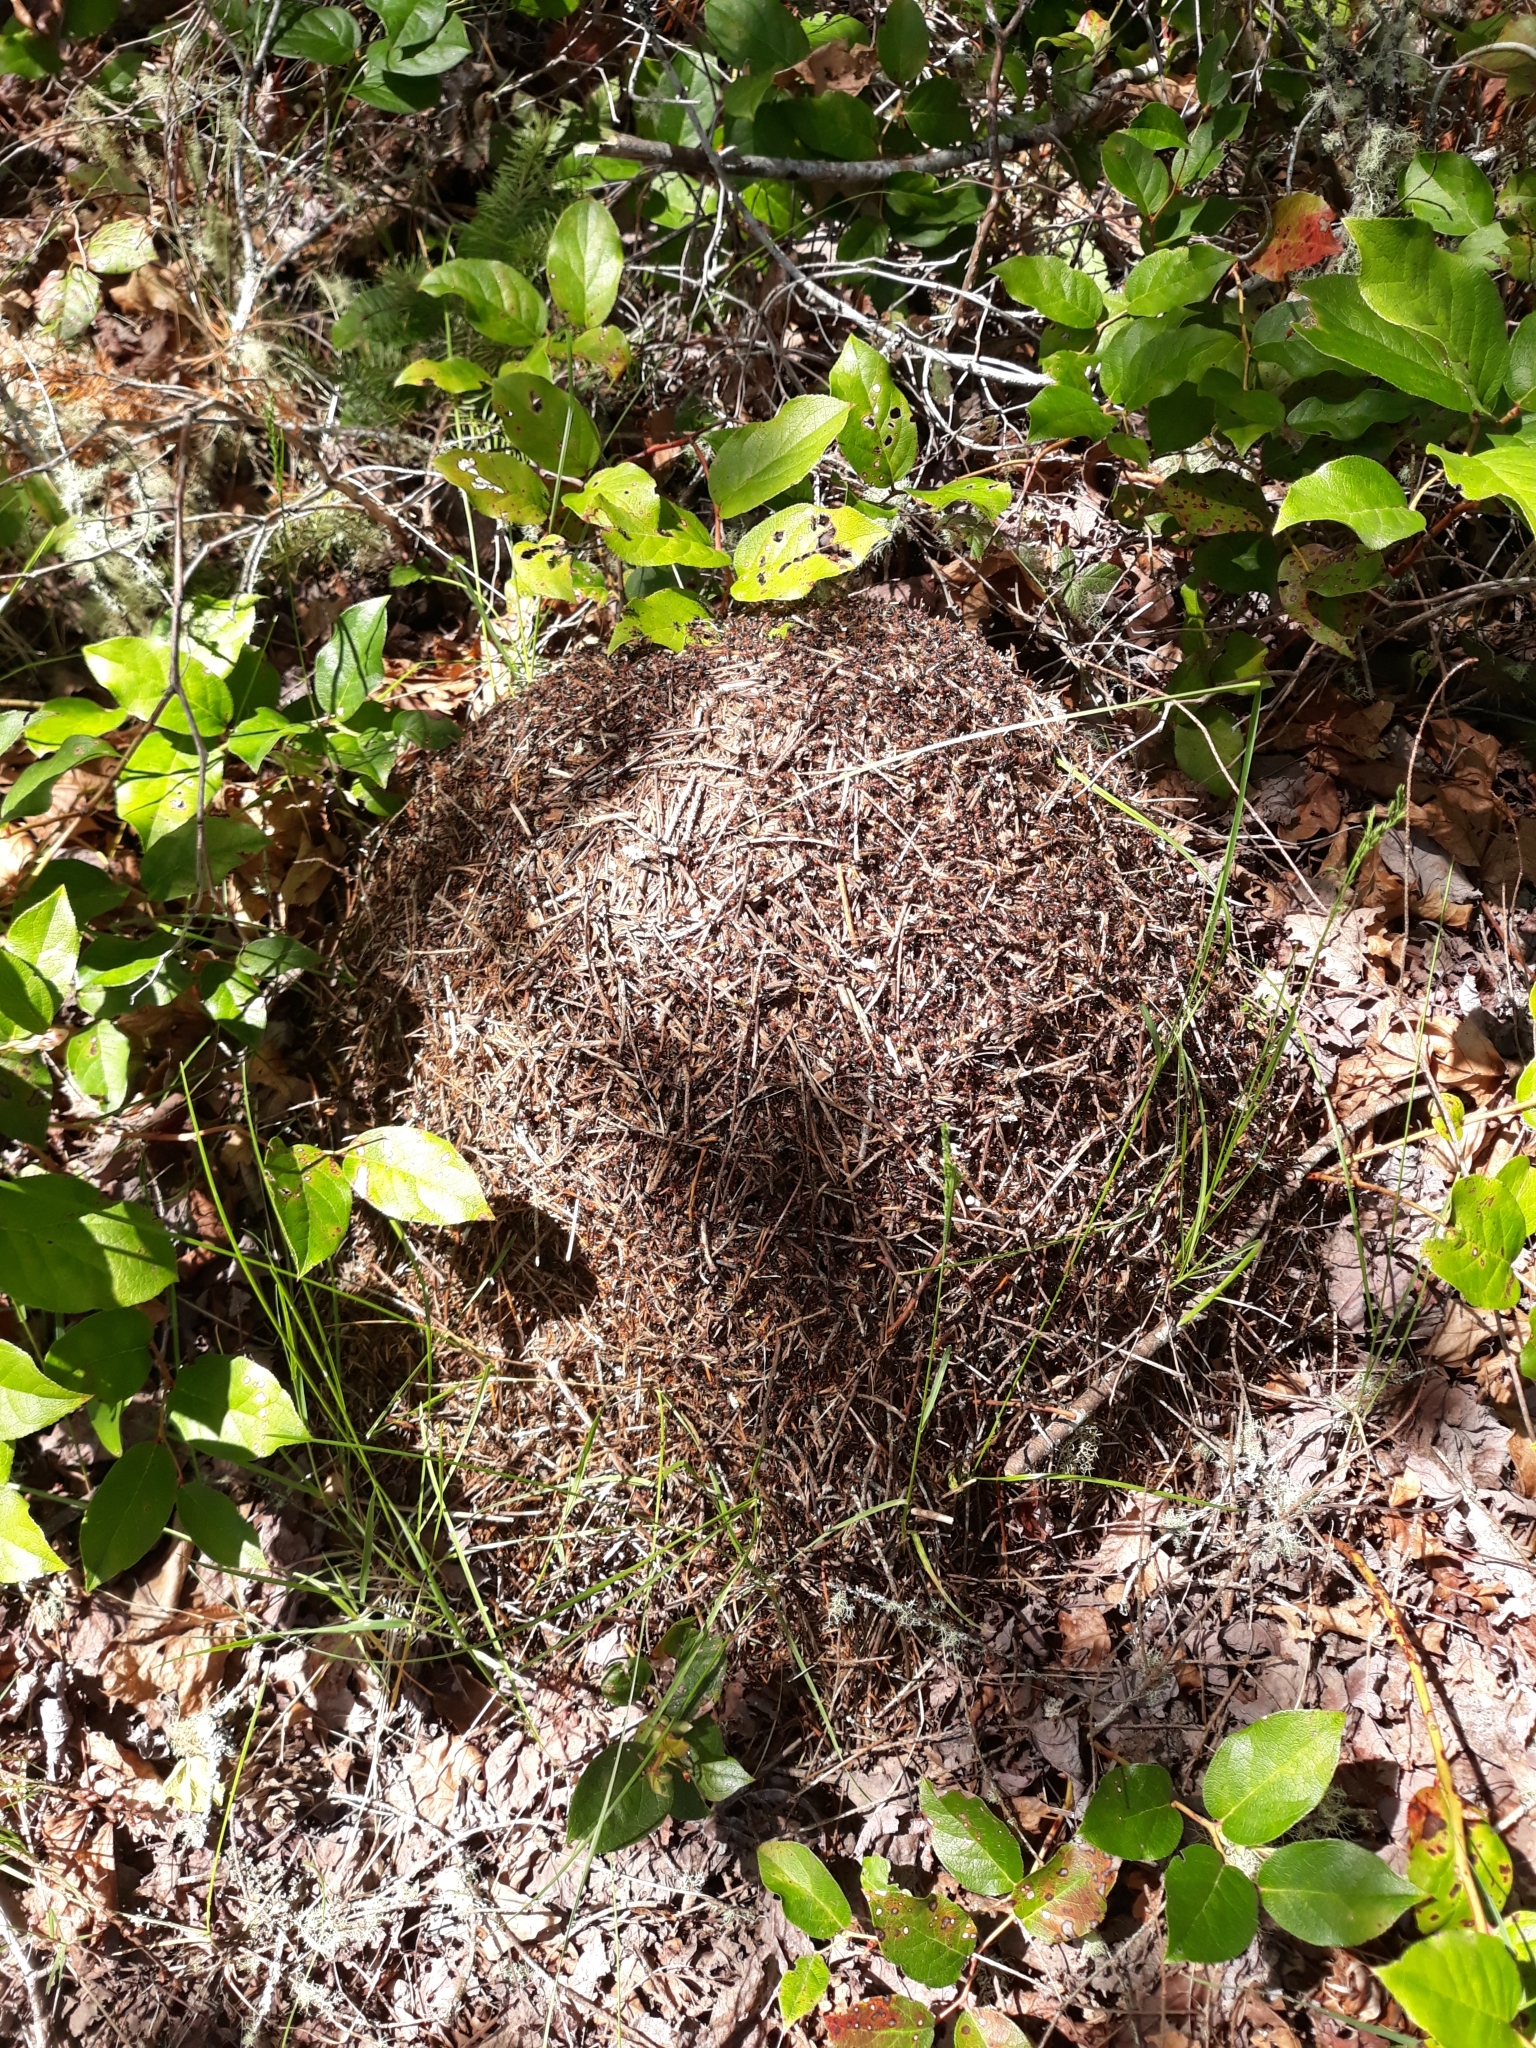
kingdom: Animalia
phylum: Arthropoda
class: Insecta
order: Hymenoptera
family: Formicidae
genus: Formica
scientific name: Formica obscuripes
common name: Western thatching ant
